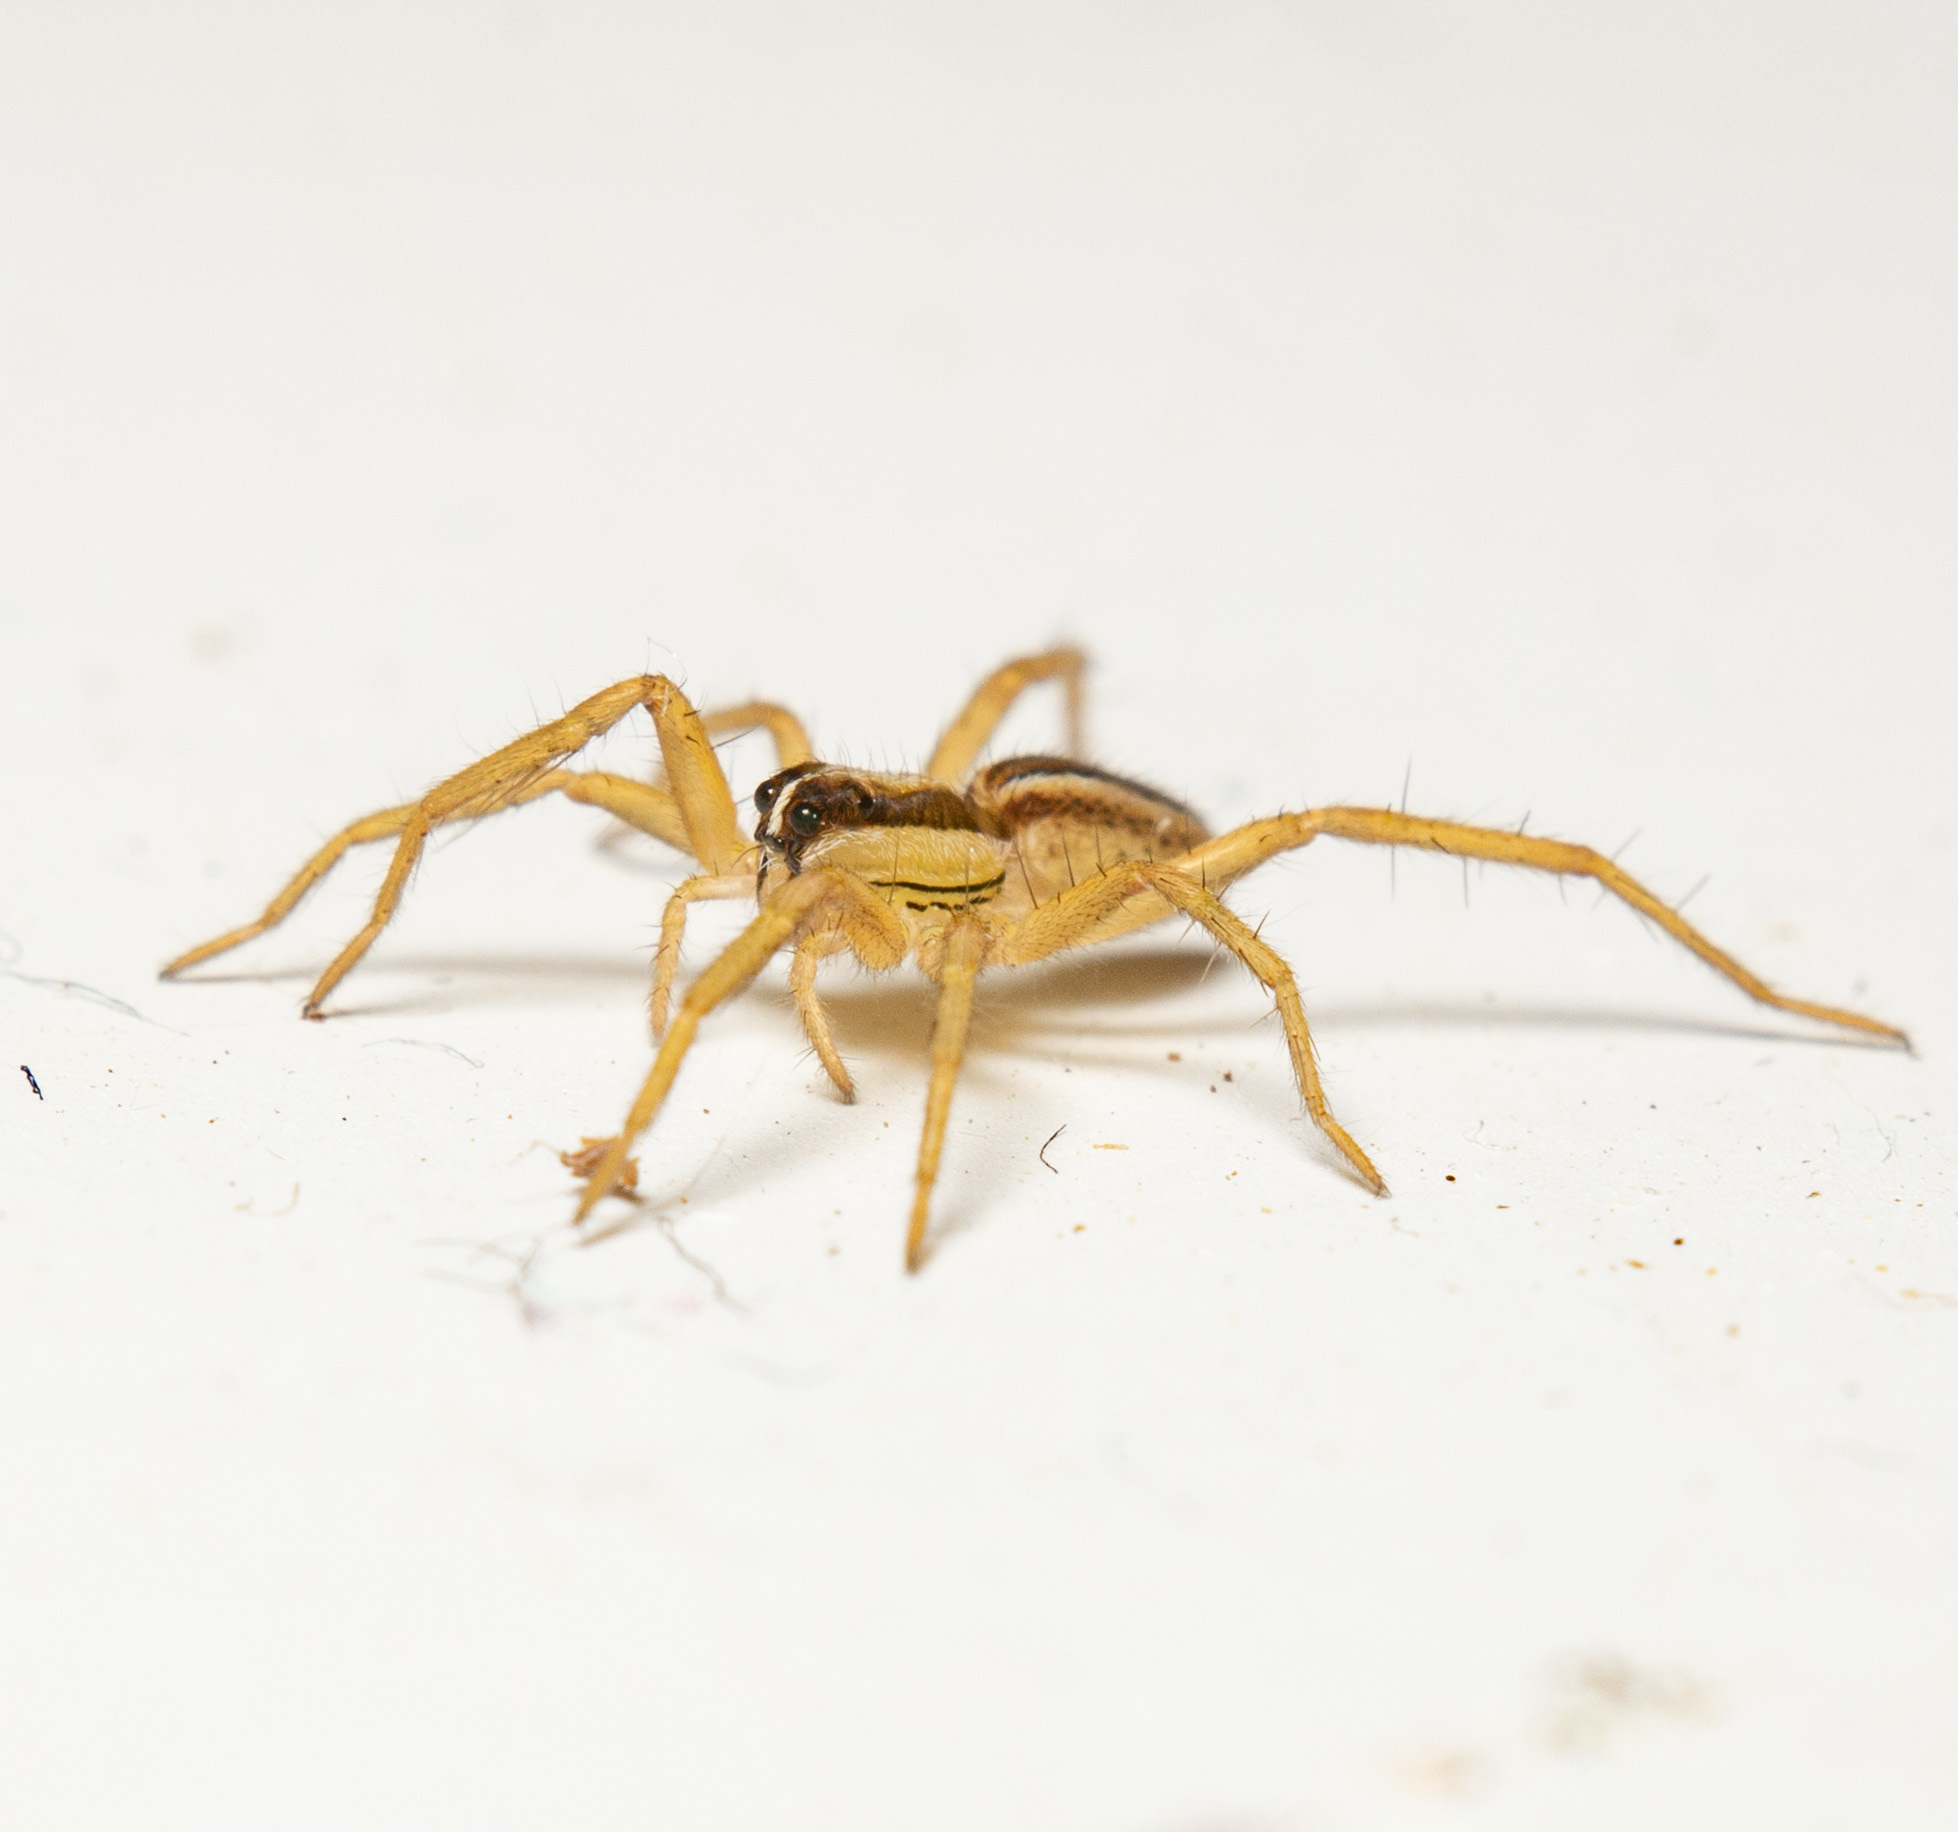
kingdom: Animalia
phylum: Arthropoda
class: Arachnida
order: Araneae
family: Lycosidae
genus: Rabidosa
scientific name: Rabidosa rabida
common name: Rabid wolf spider
